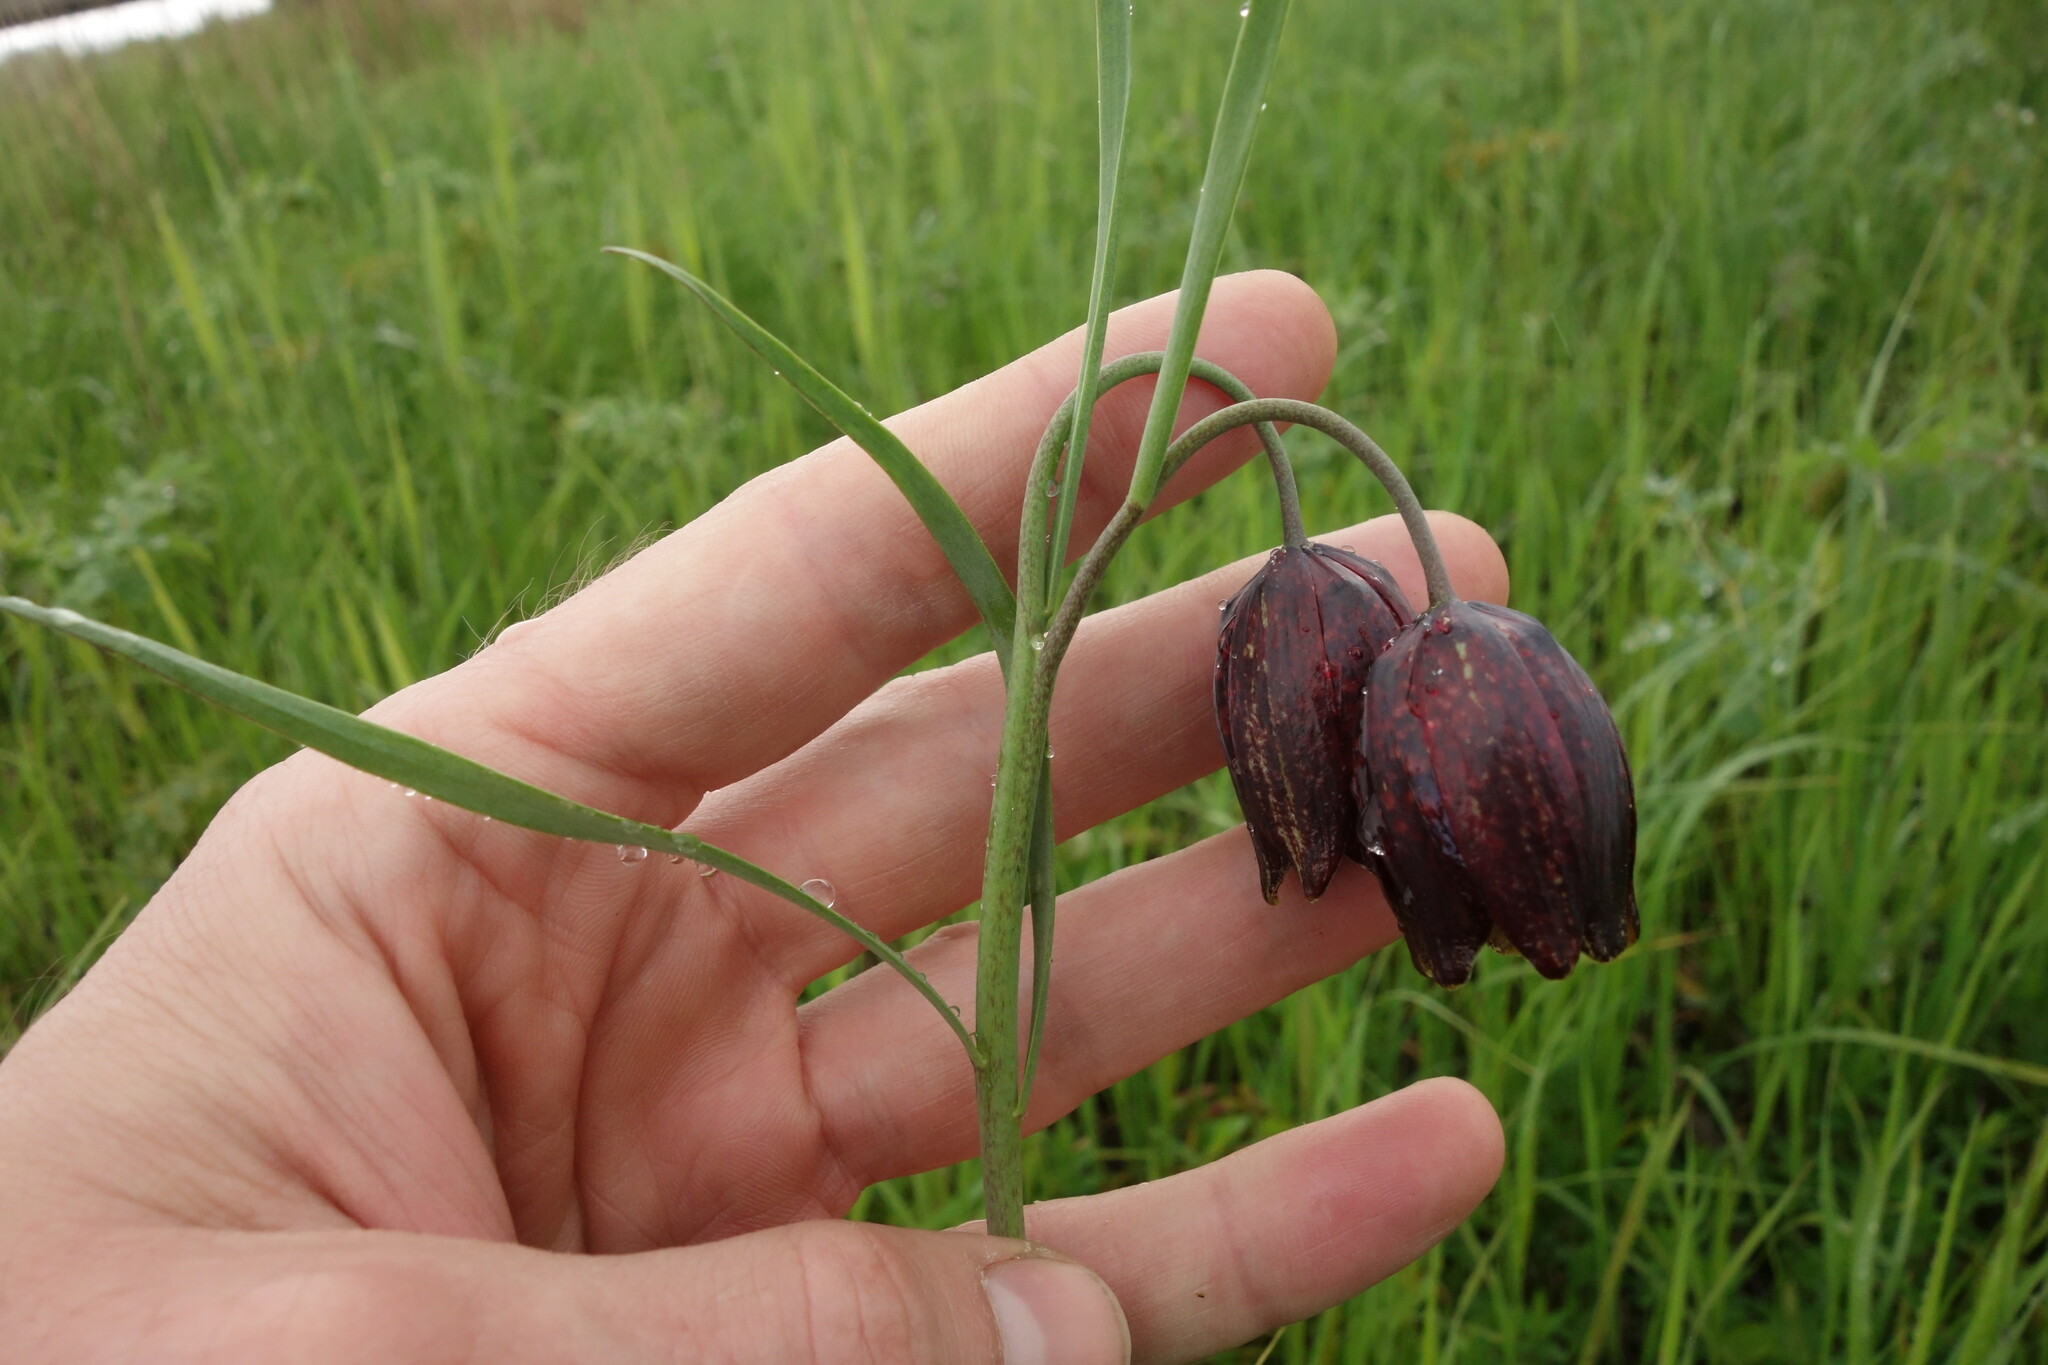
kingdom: Plantae
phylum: Tracheophyta
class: Liliopsida
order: Liliales
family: Liliaceae
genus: Fritillaria
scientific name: Fritillaria meleagroides
